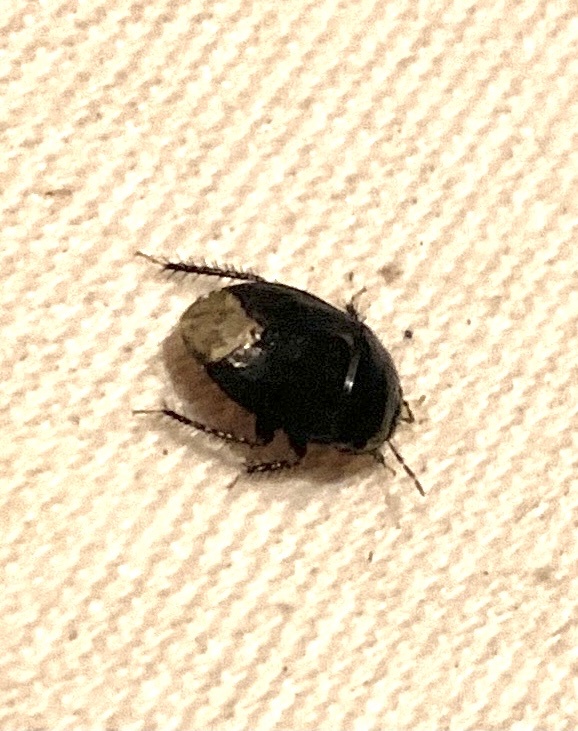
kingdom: Animalia
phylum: Arthropoda
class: Insecta
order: Hemiptera
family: Cydnidae
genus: Macroscytus
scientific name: Macroscytus brunneus
